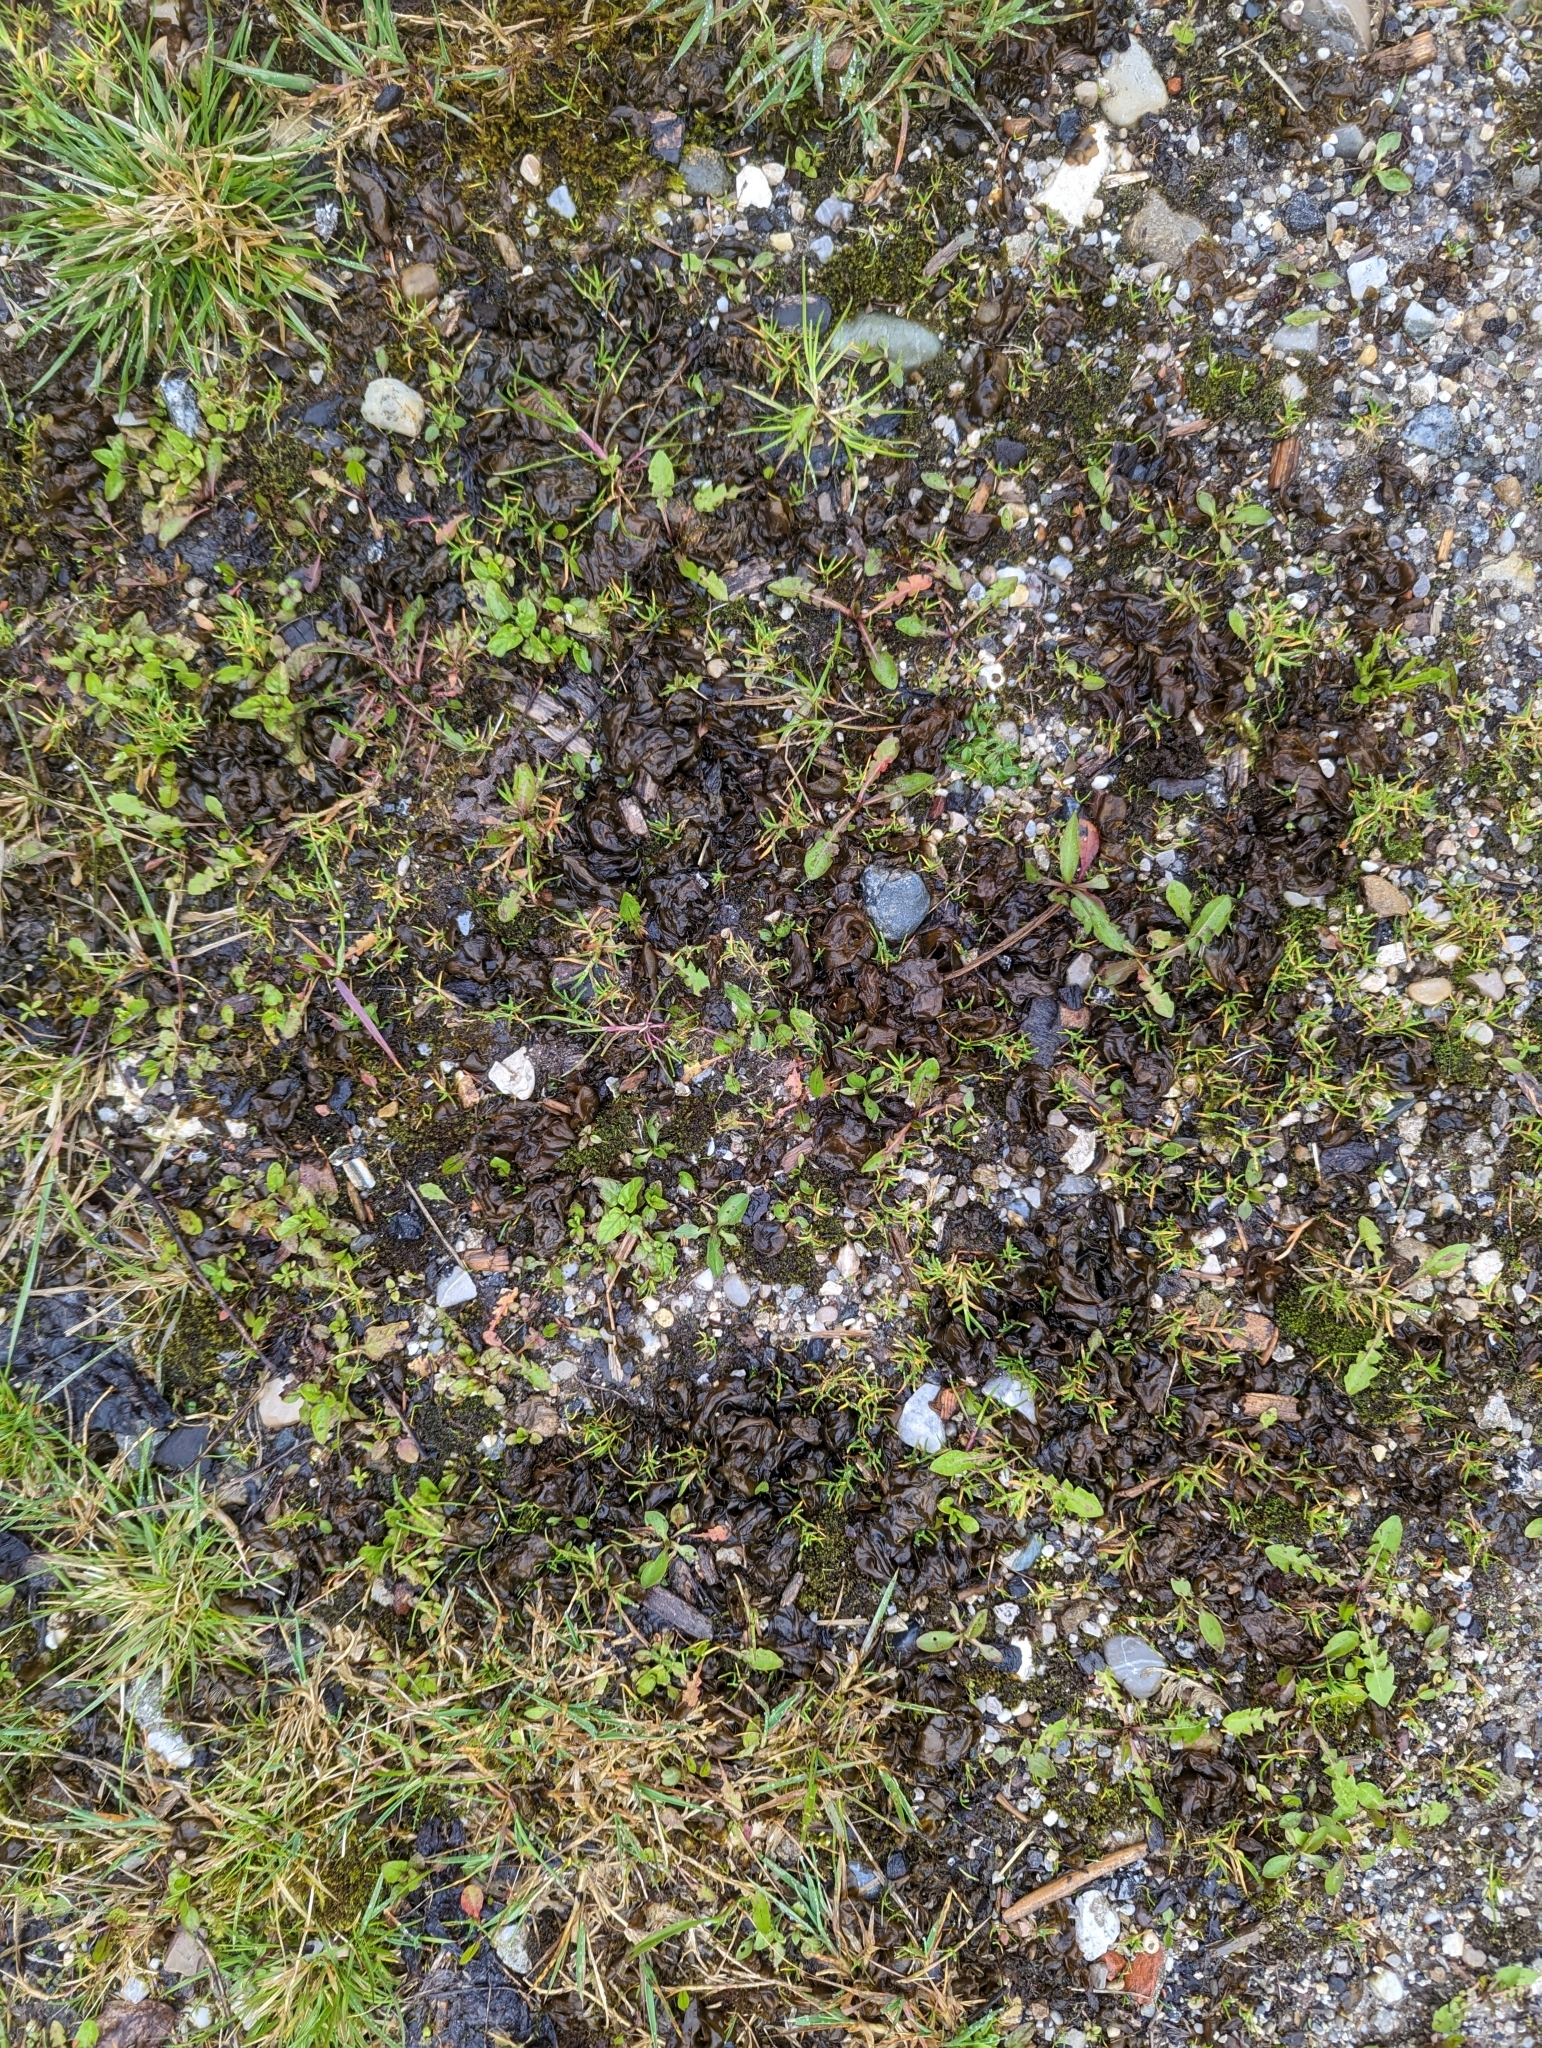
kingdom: Bacteria
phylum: Cyanobacteria
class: Cyanobacteriia
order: Cyanobacteriales
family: Nostocaceae
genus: Nostoc
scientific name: Nostoc commune
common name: Star jelly
